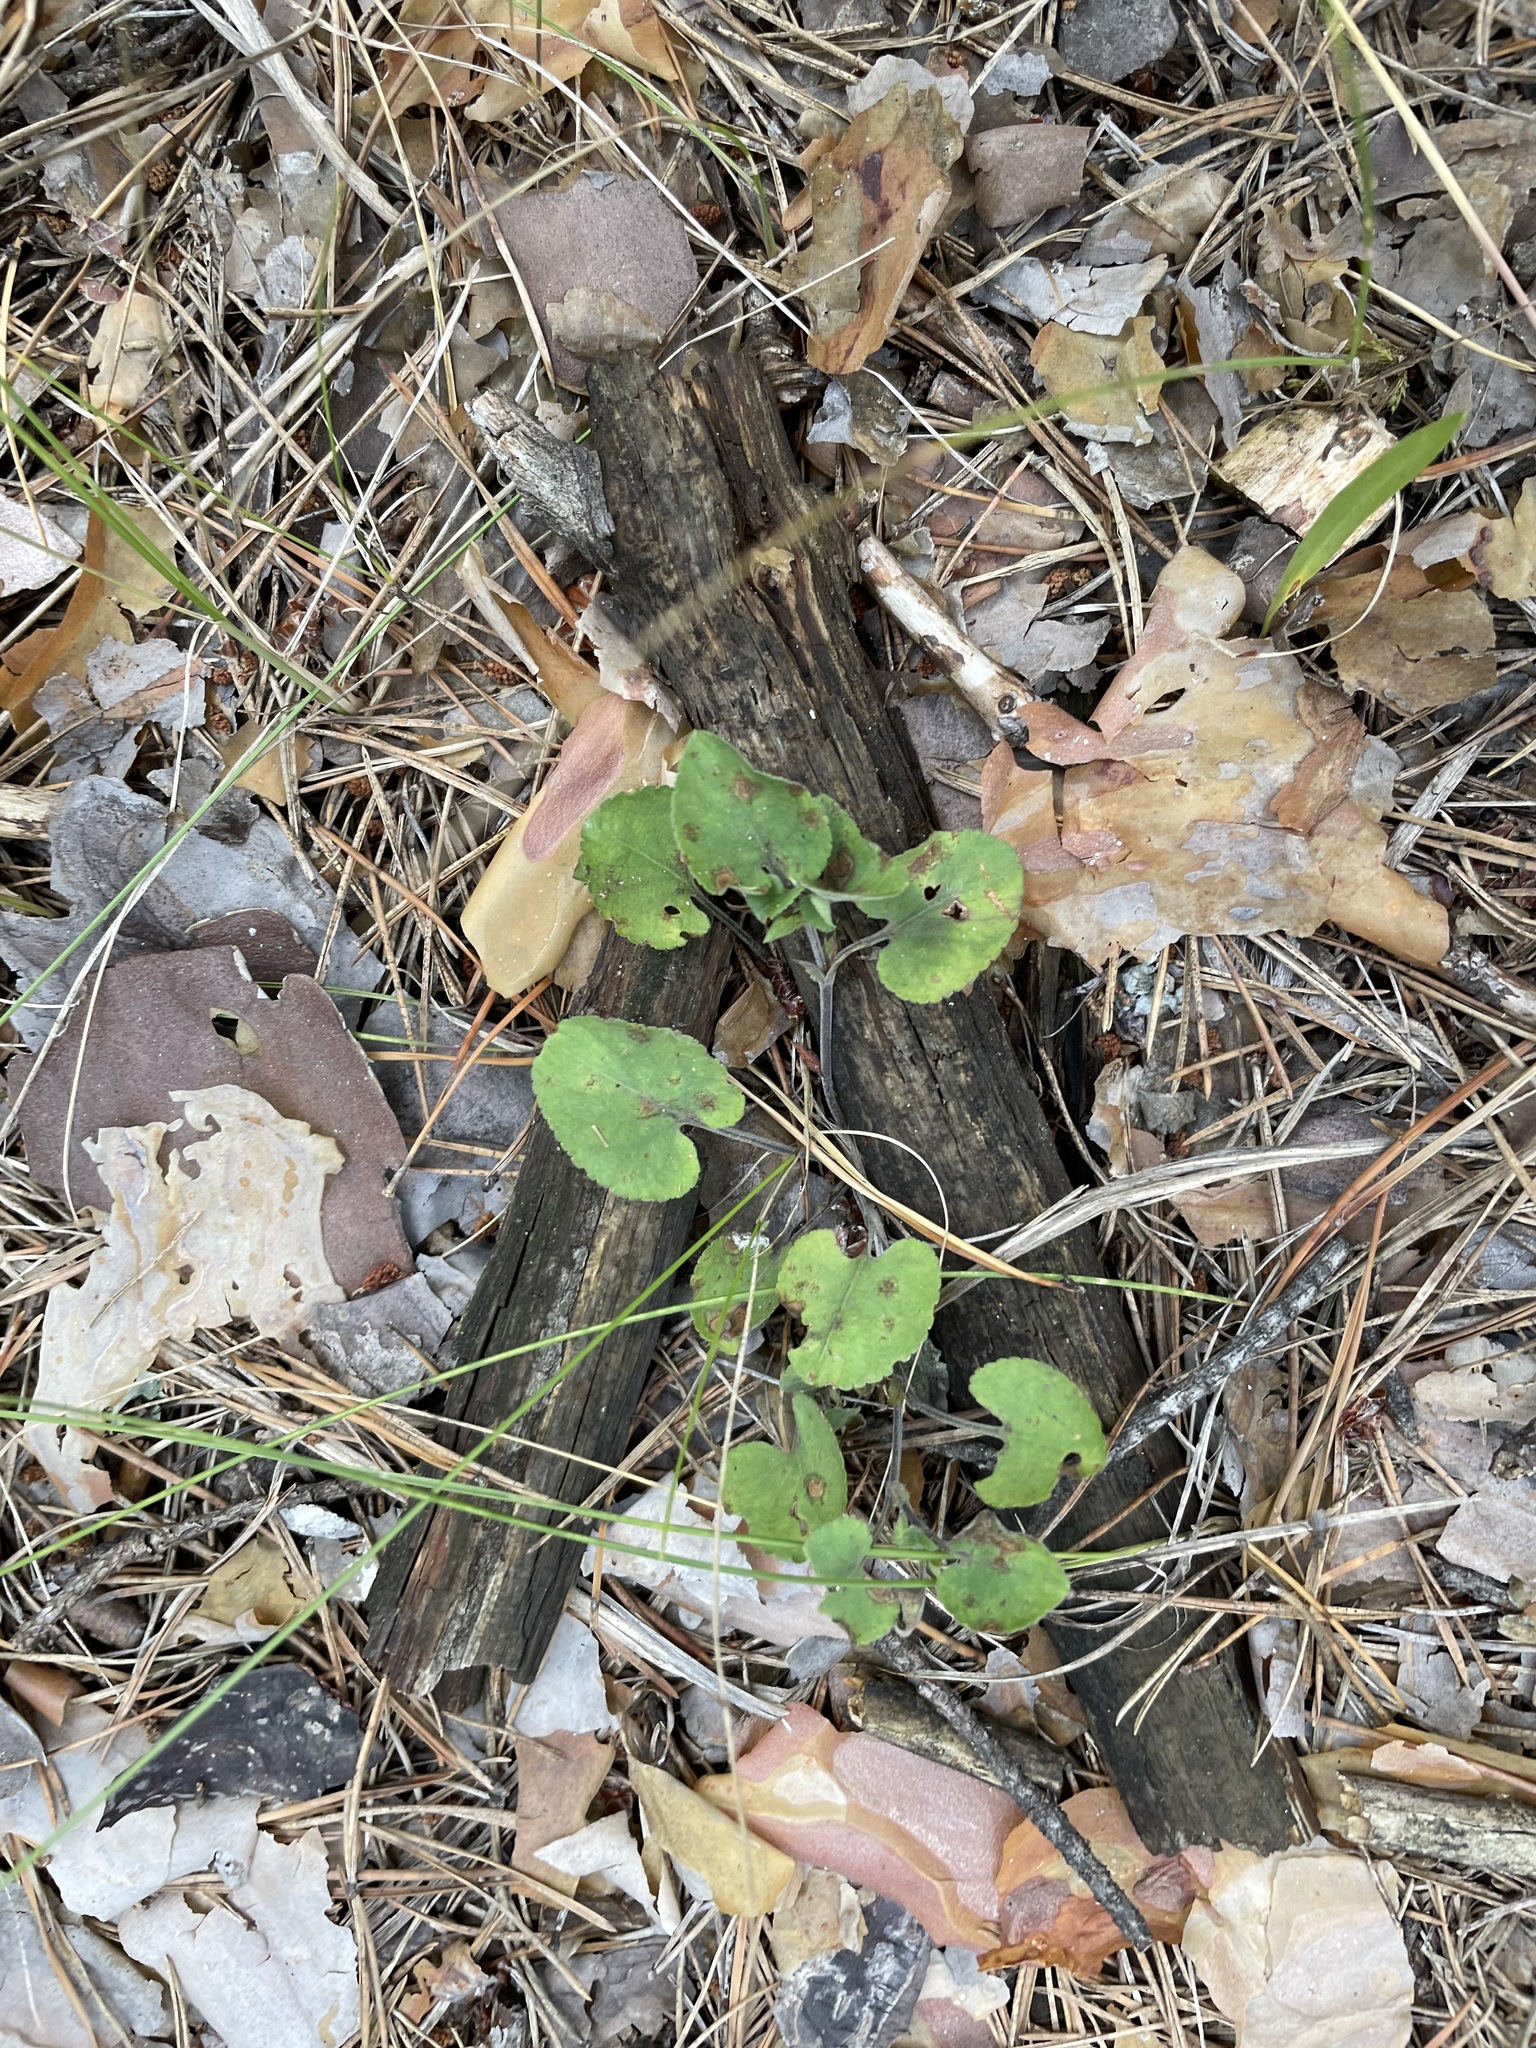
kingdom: Plantae
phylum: Tracheophyta
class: Magnoliopsida
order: Malpighiales
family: Violaceae
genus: Viola
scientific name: Viola rupestris
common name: Teesdale violet
